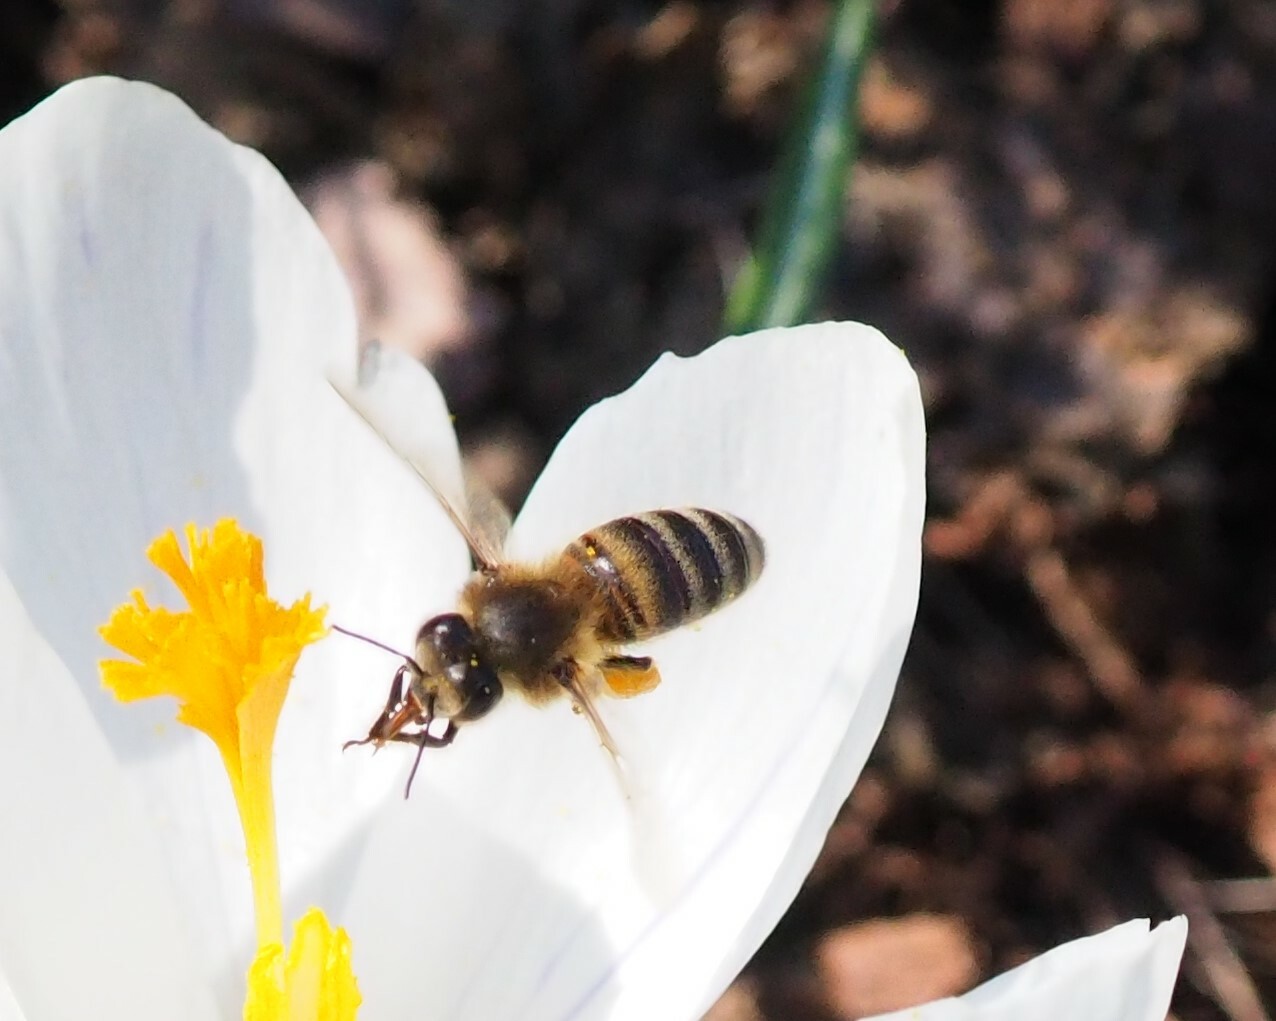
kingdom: Animalia
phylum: Arthropoda
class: Insecta
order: Hymenoptera
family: Apidae
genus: Apis
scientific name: Apis mellifera
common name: Honey bee
